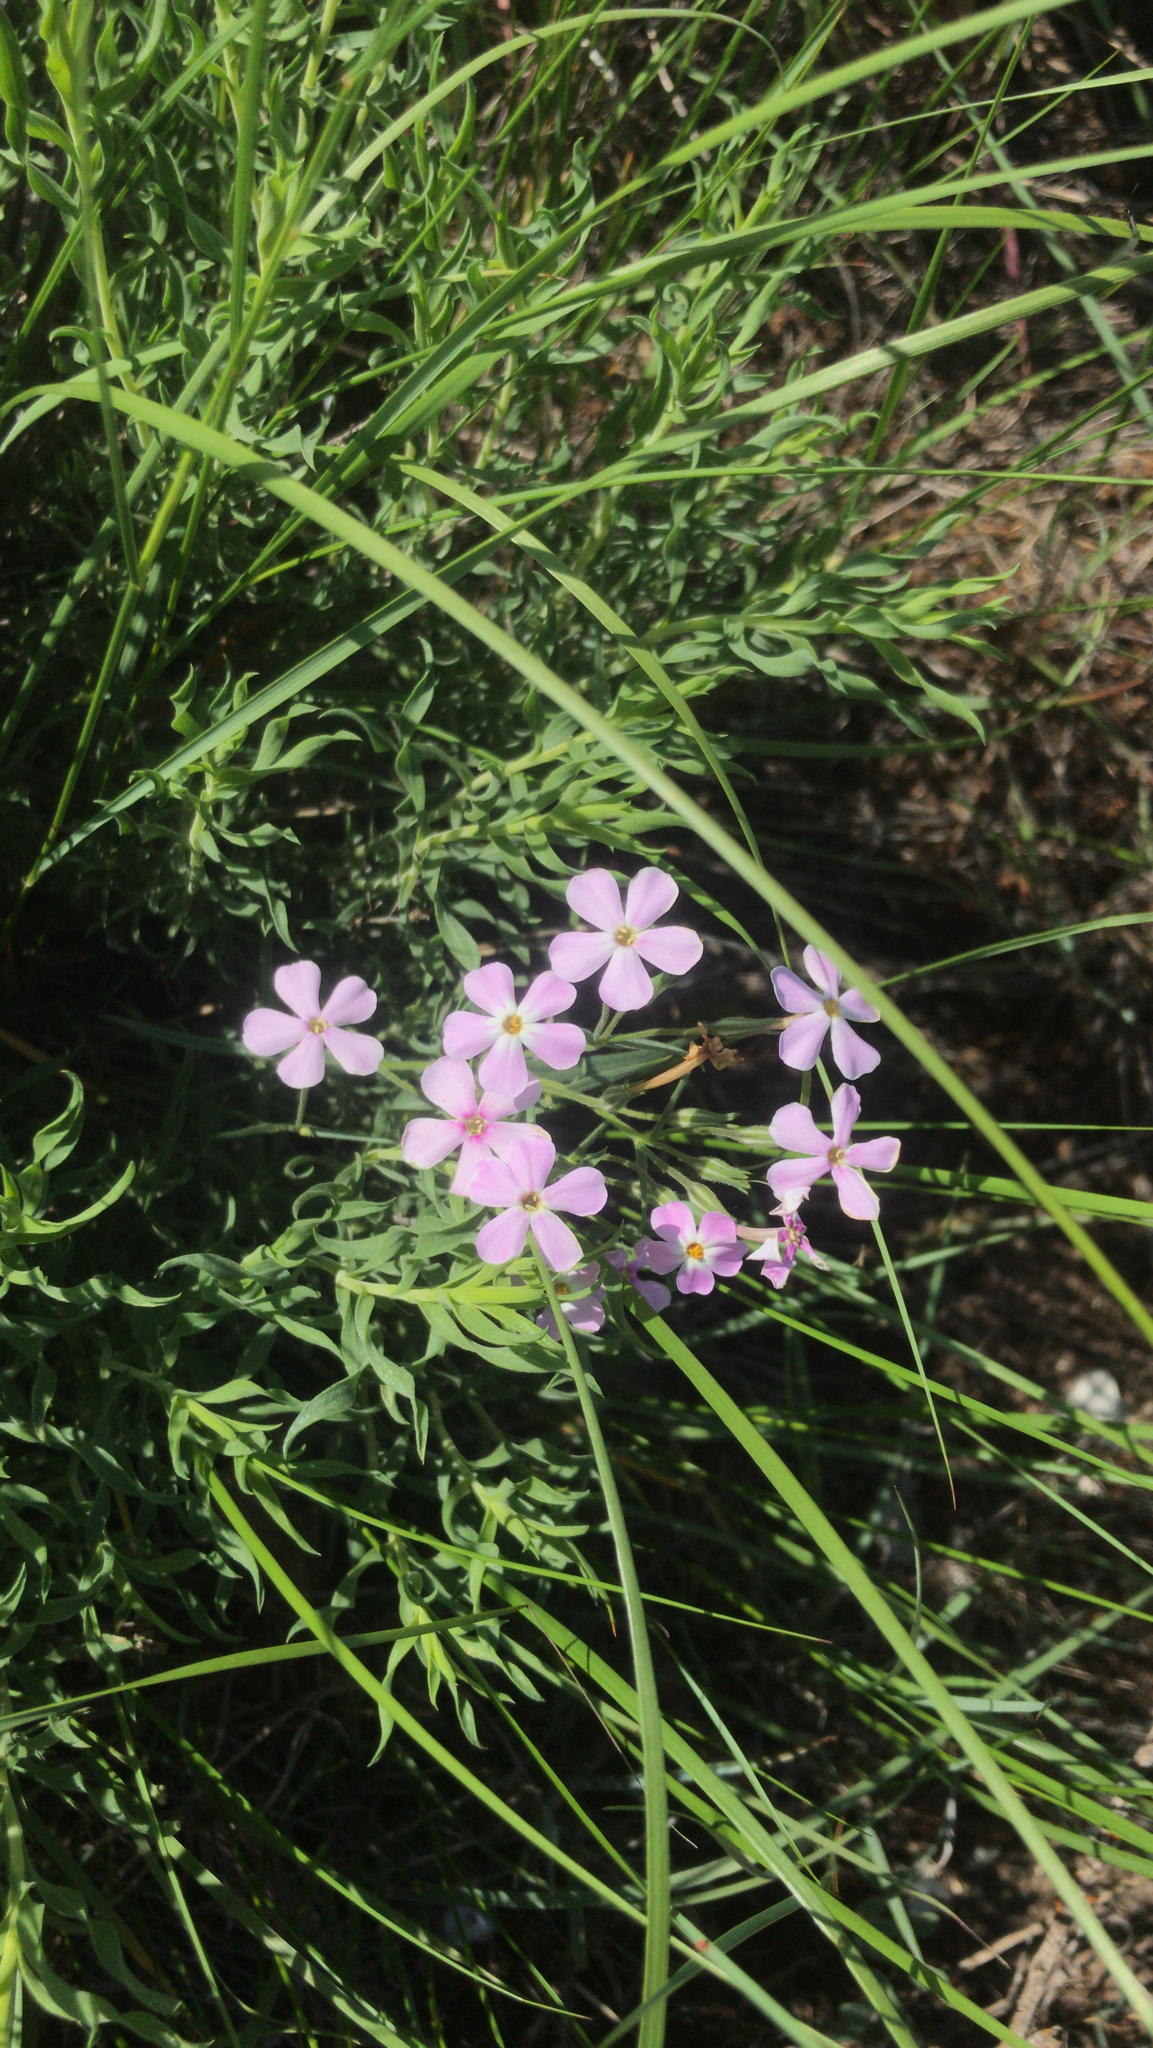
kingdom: Plantae
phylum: Tracheophyta
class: Magnoliopsida
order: Ericales
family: Polemoniaceae
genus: Phlox
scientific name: Phlox longifolia
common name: Longleaf phlox
